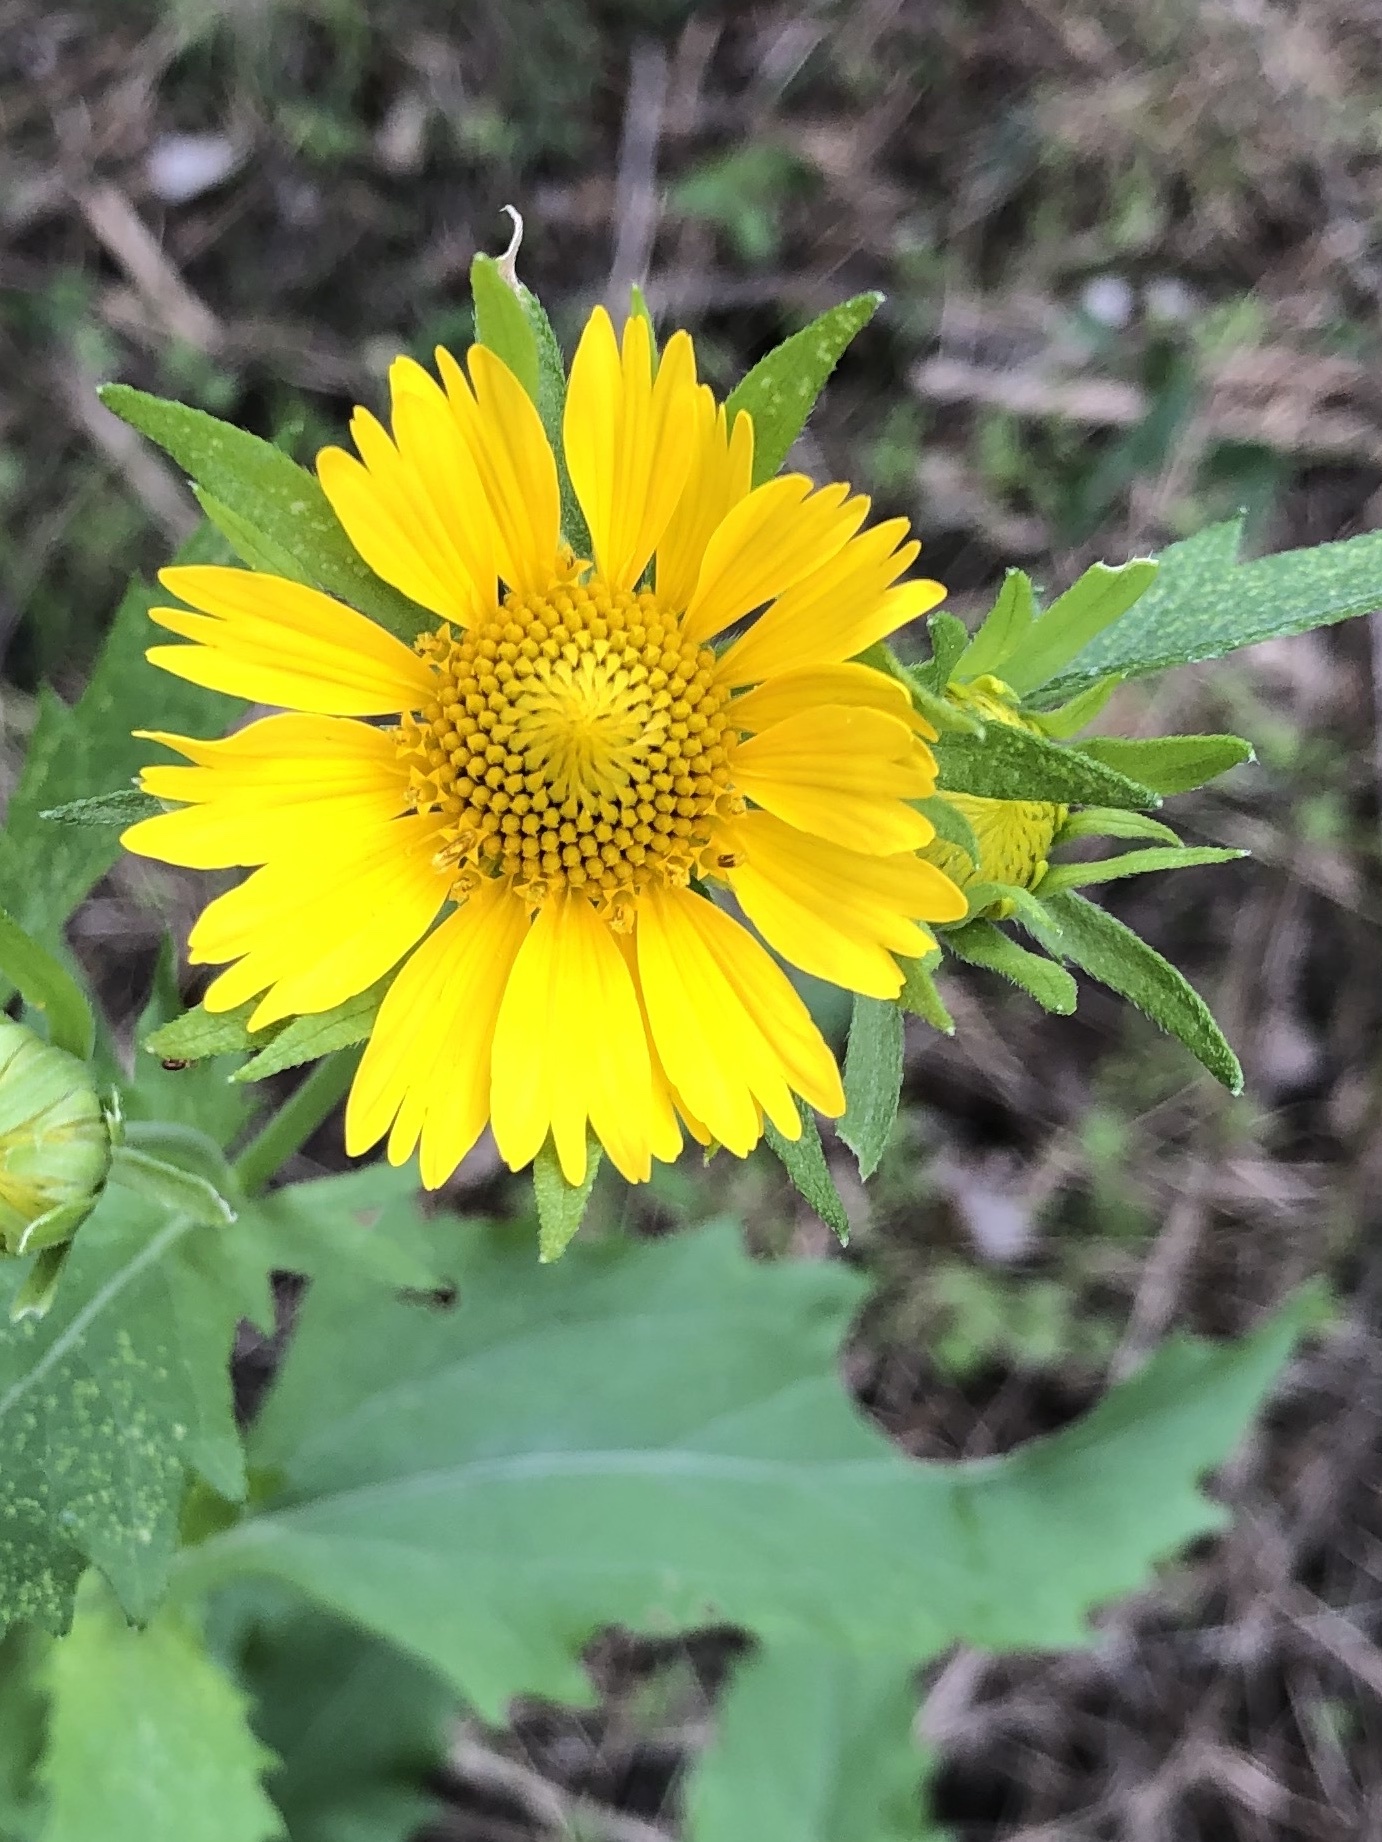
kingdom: Plantae
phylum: Tracheophyta
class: Magnoliopsida
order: Asterales
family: Asteraceae
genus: Verbesina
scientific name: Verbesina encelioides
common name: Golden crownbeard
